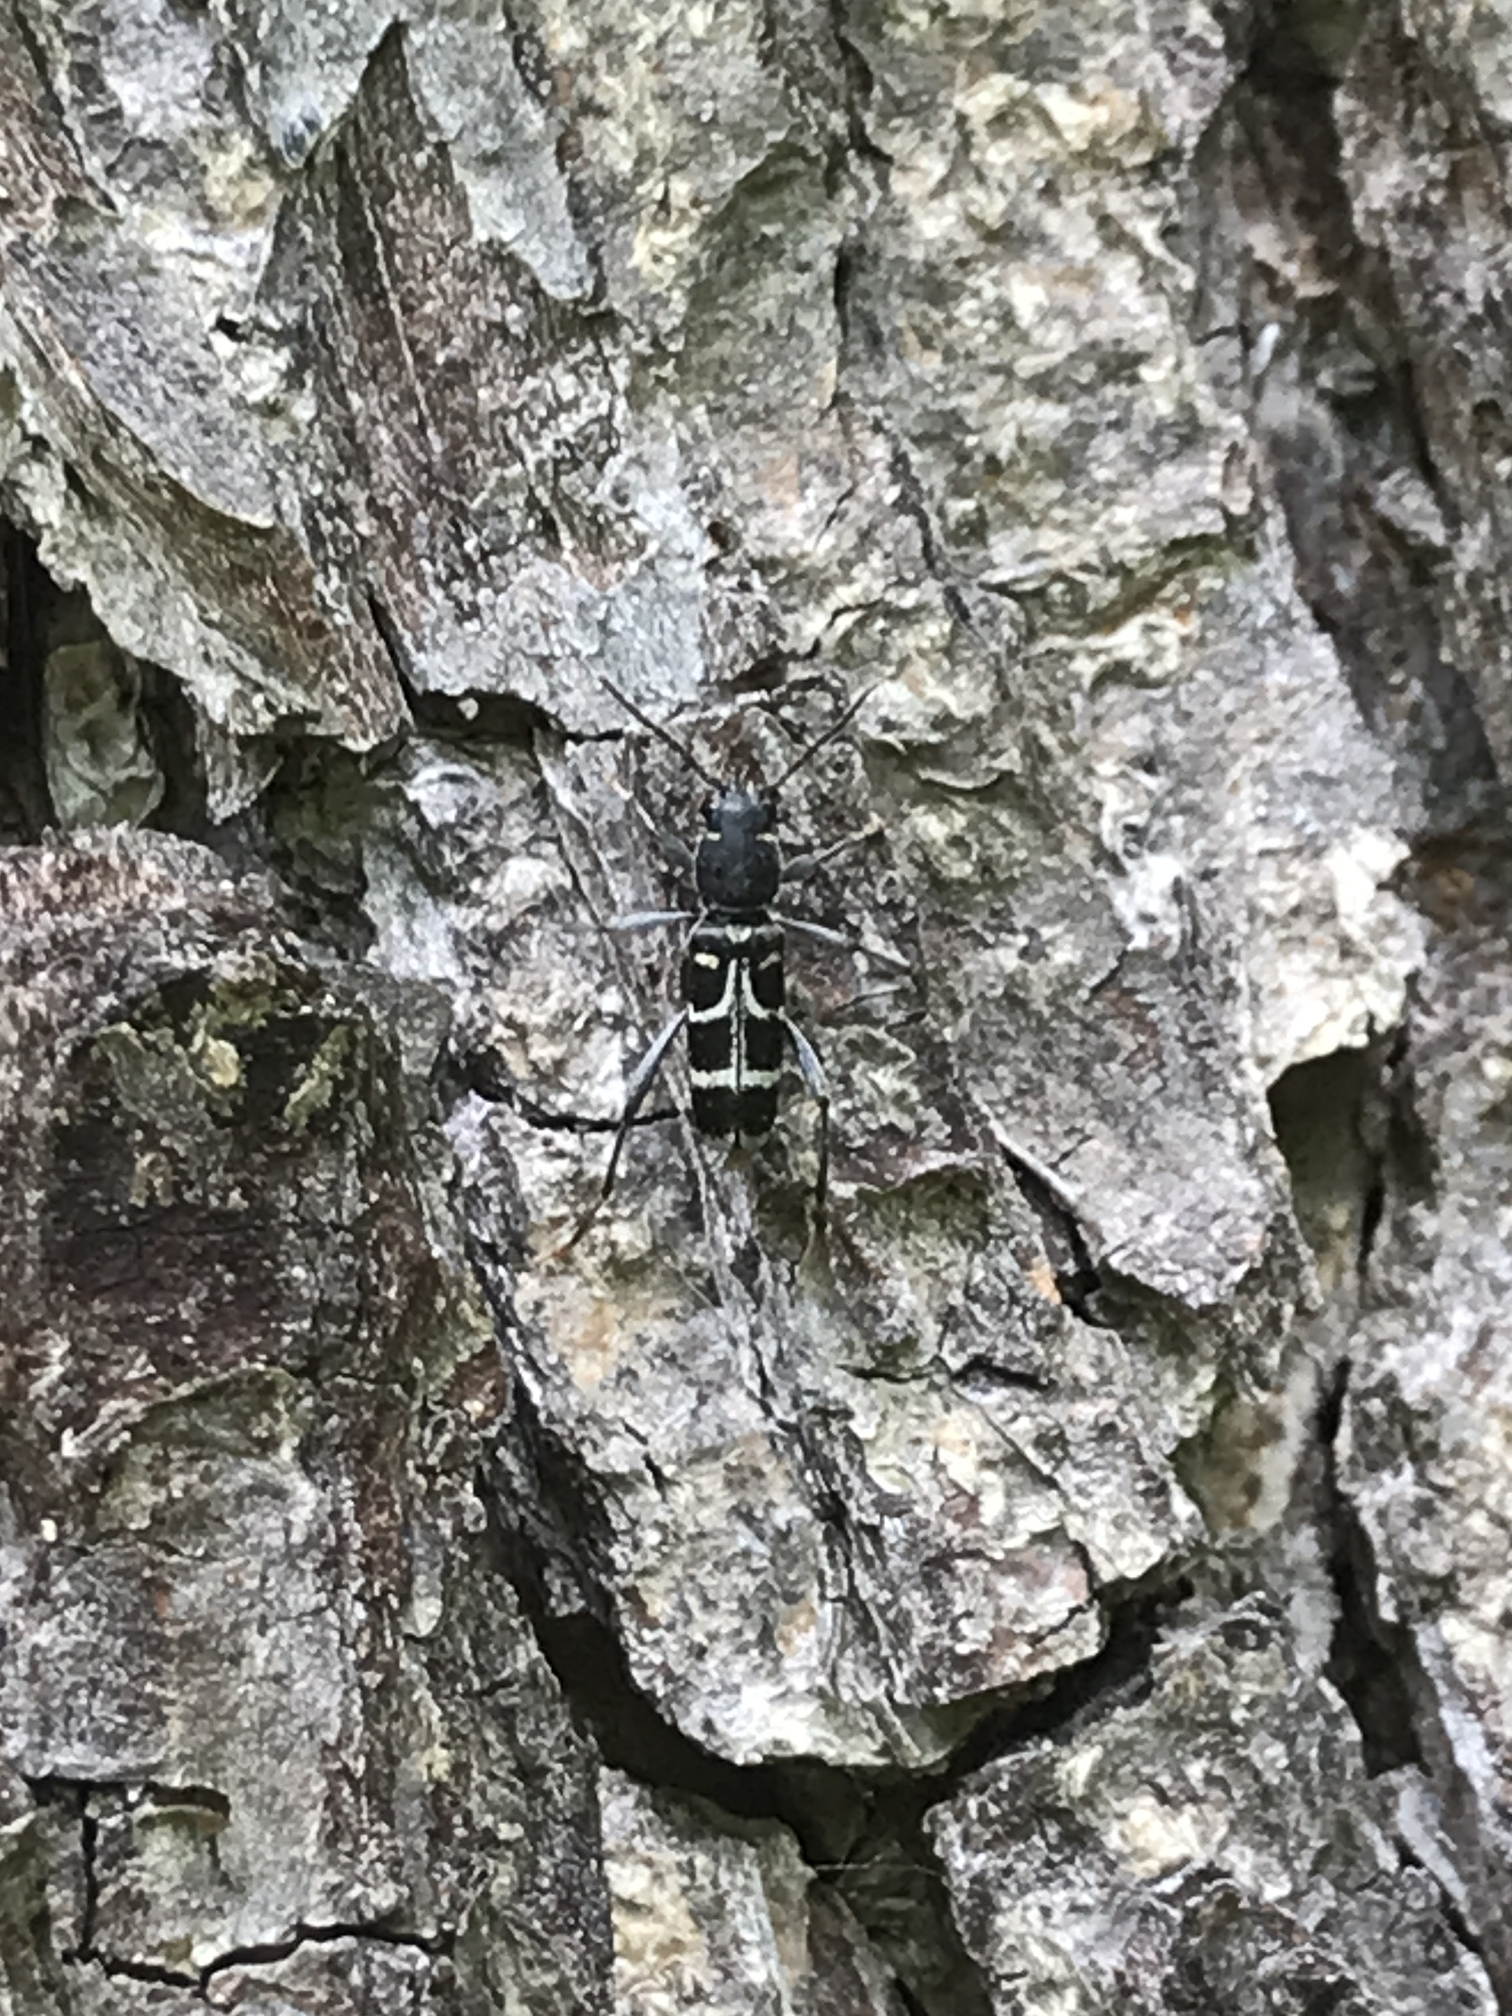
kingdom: Animalia
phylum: Arthropoda
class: Insecta
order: Coleoptera
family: Cerambycidae
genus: Xylotrechus
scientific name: Xylotrechus ibex
